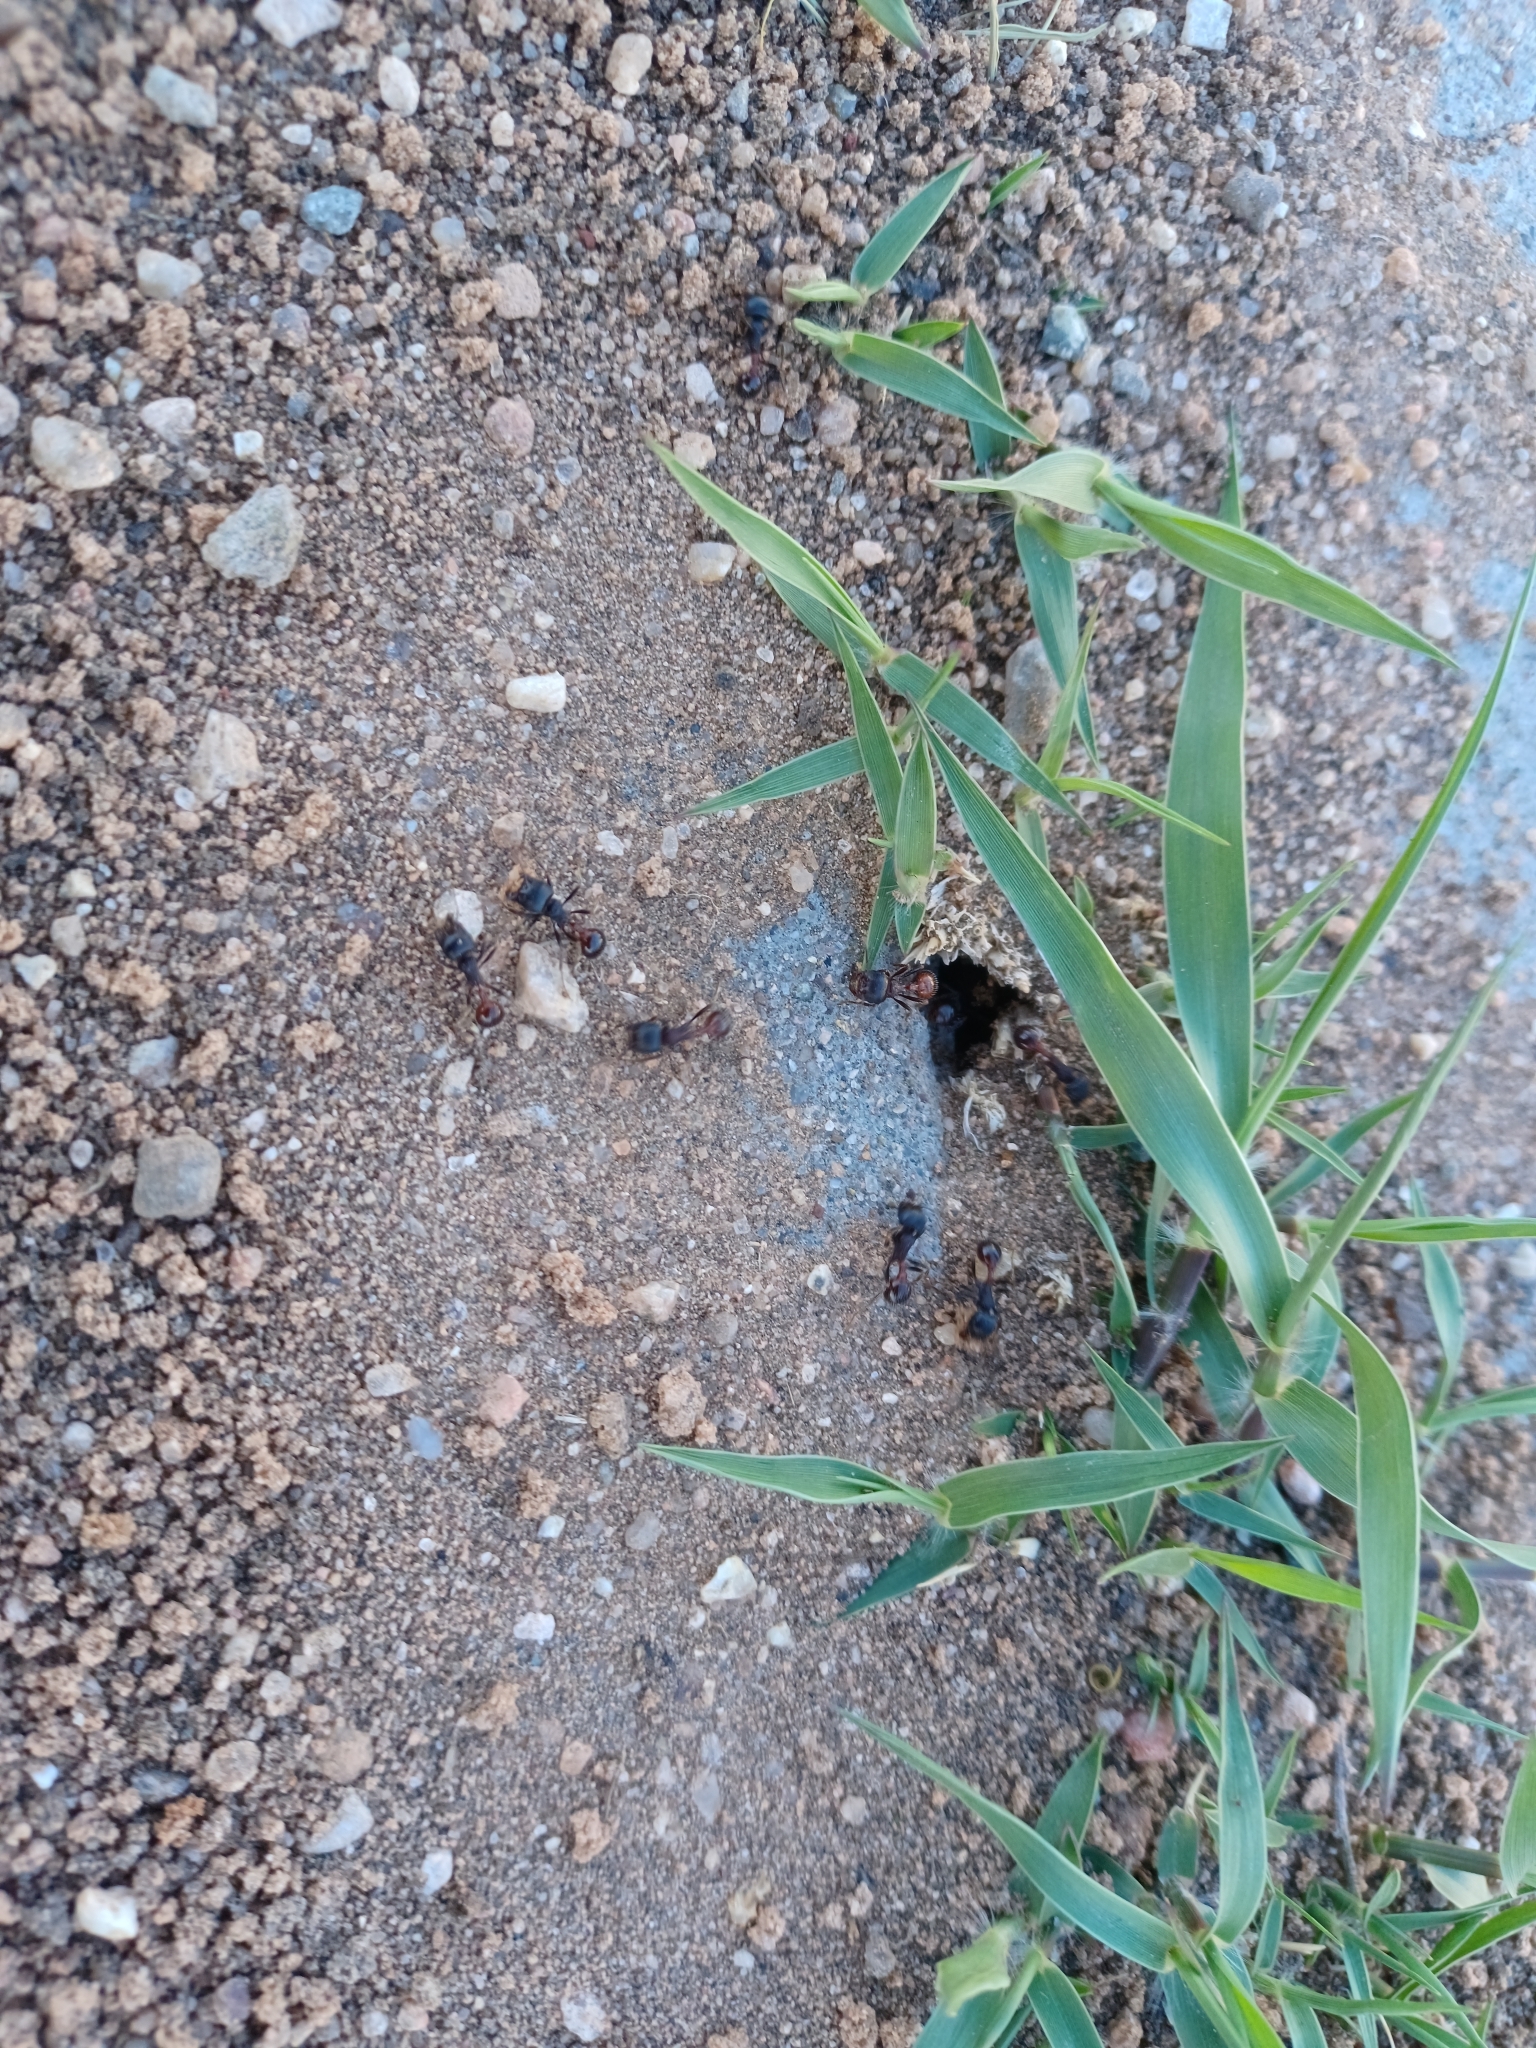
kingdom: Animalia
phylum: Arthropoda
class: Insecta
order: Hymenoptera
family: Formicidae
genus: Pogonomyrmex
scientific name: Pogonomyrmex rugosus
